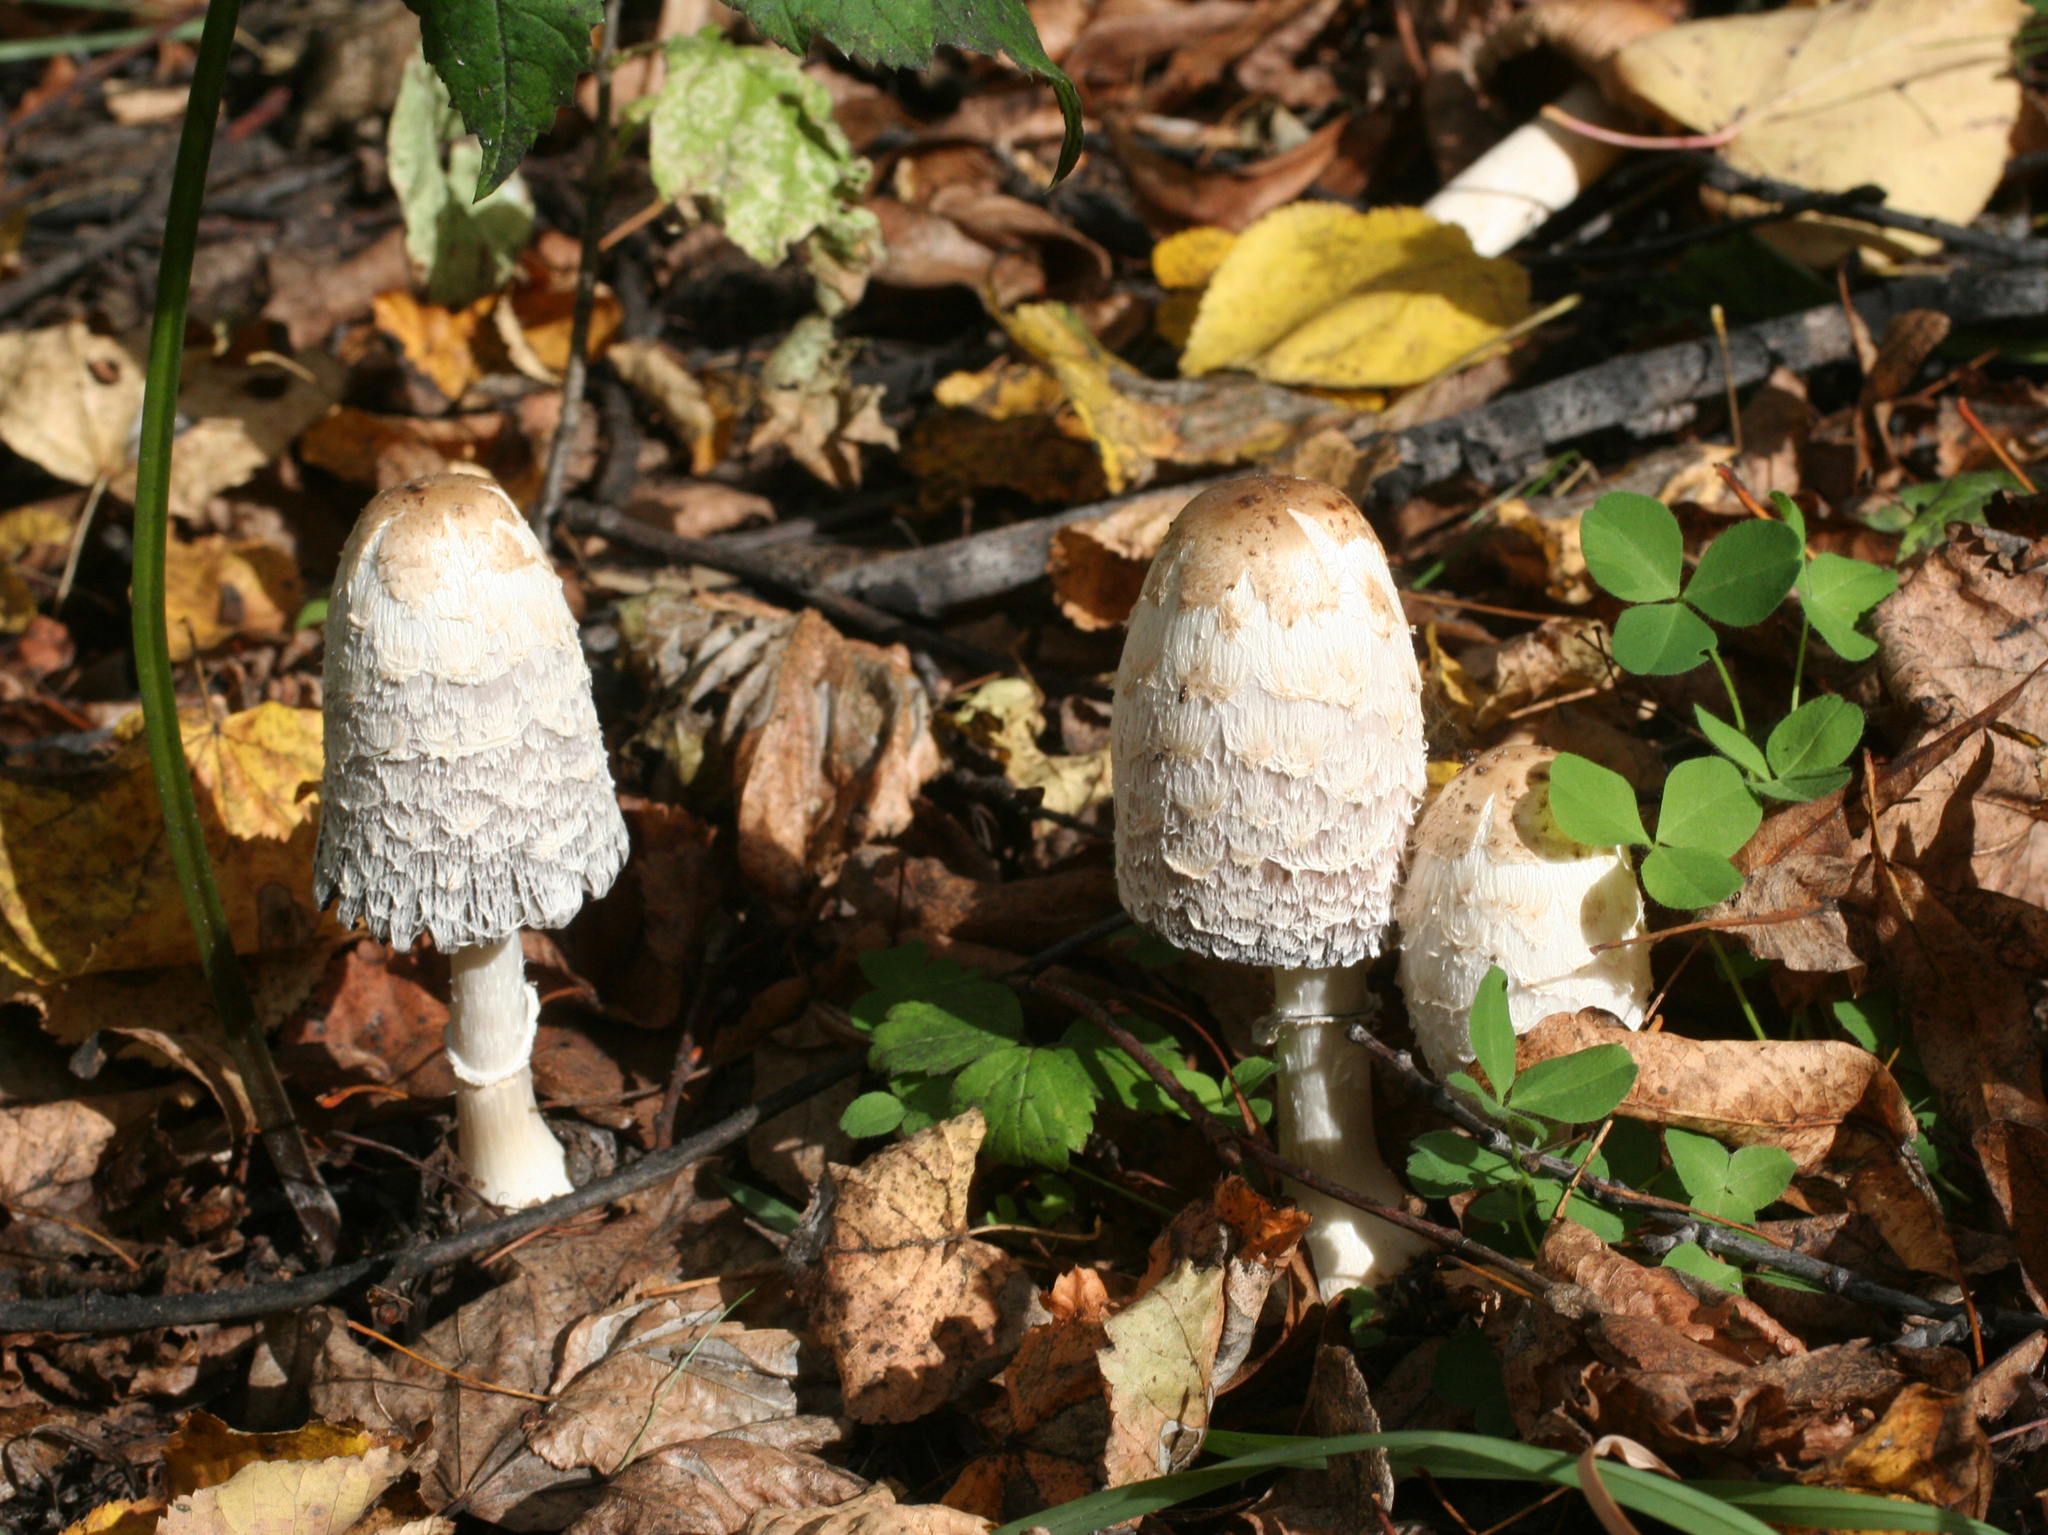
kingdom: Fungi
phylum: Basidiomycota
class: Agaricomycetes
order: Agaricales
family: Agaricaceae
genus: Coprinus
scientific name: Coprinus comatus
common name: Lawyer's wig
